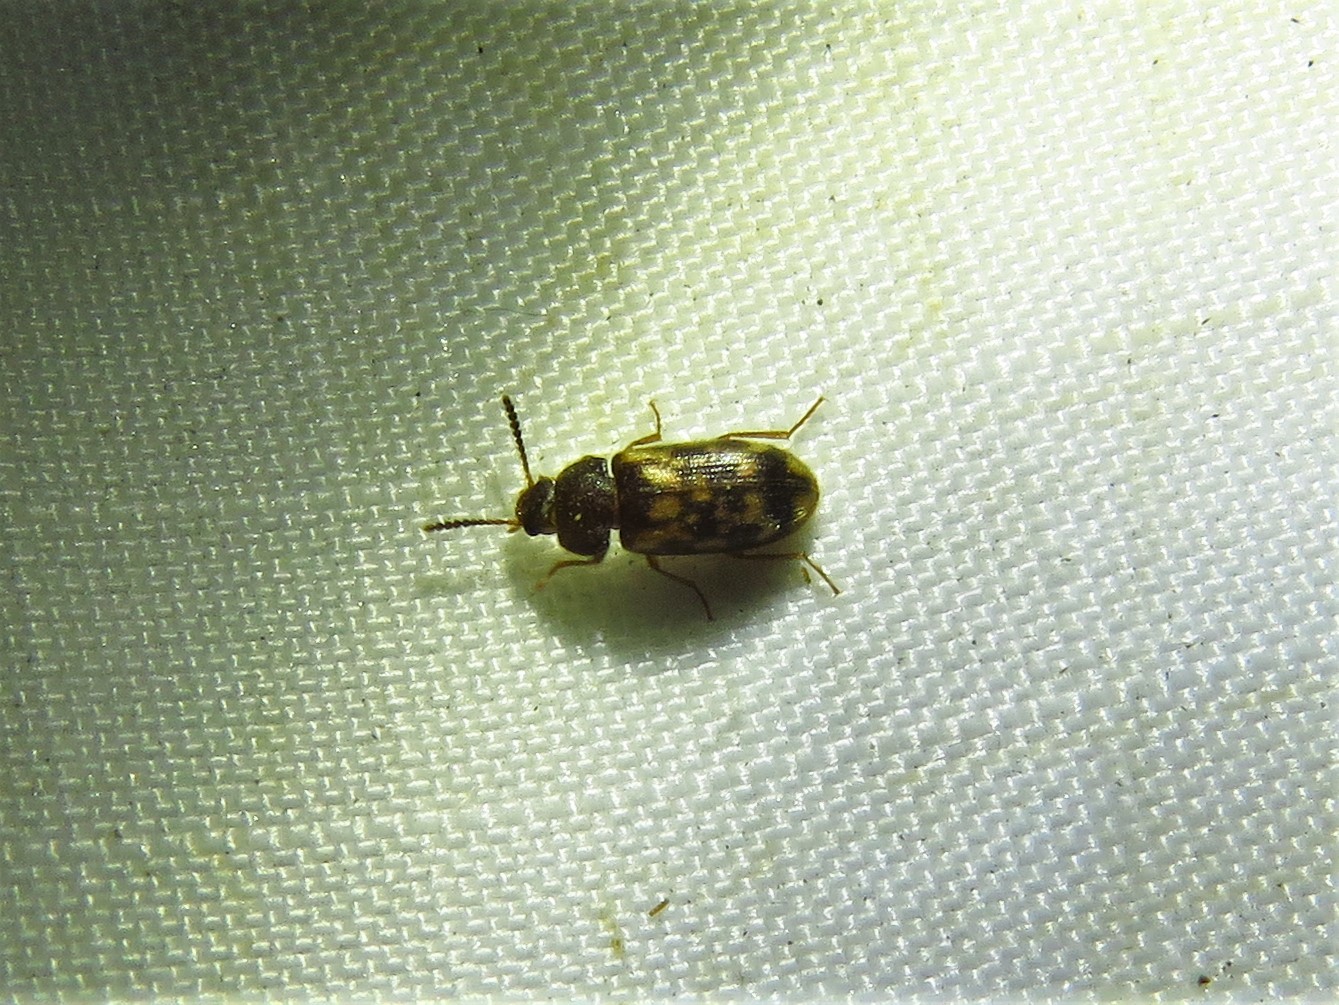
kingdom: Animalia
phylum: Arthropoda
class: Insecta
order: Coleoptera
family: Mycetophagidae
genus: Mycetophagus
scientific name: Mycetophagus pluripunctatus
